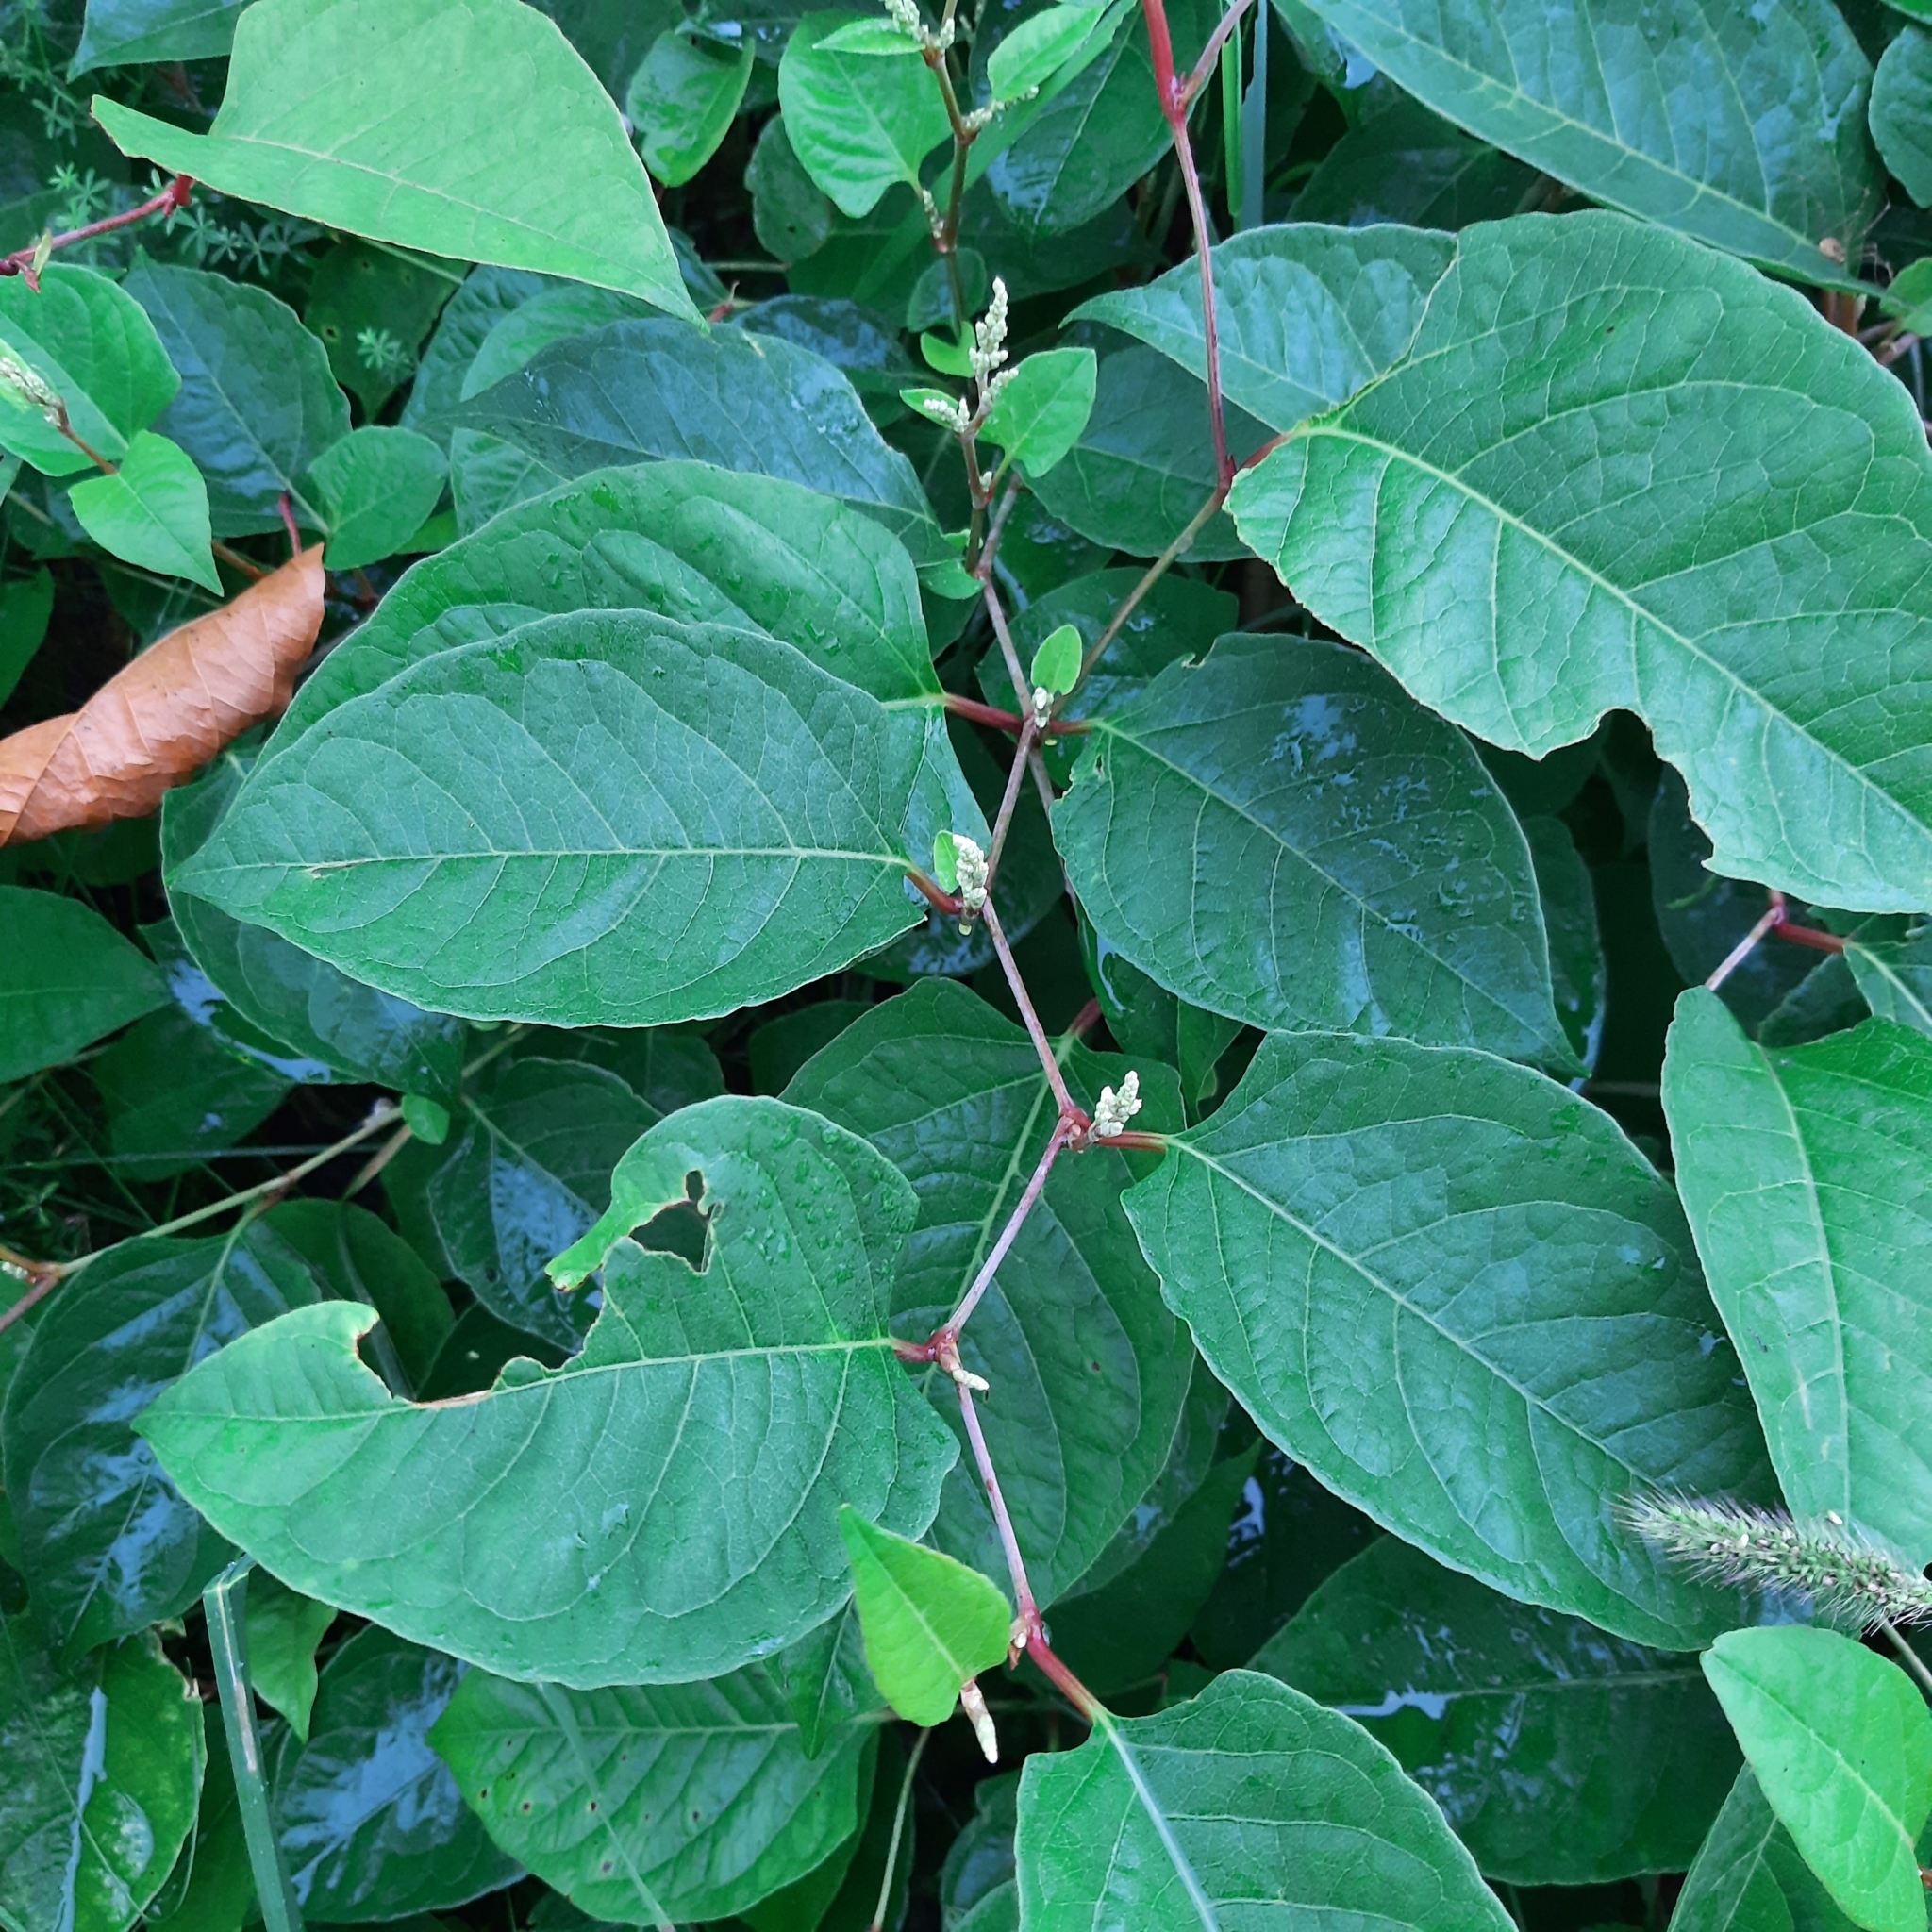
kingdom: Plantae
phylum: Tracheophyta
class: Magnoliopsida
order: Caryophyllales
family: Polygonaceae
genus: Reynoutria
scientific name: Reynoutria japonica
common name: Japanese knotweed
